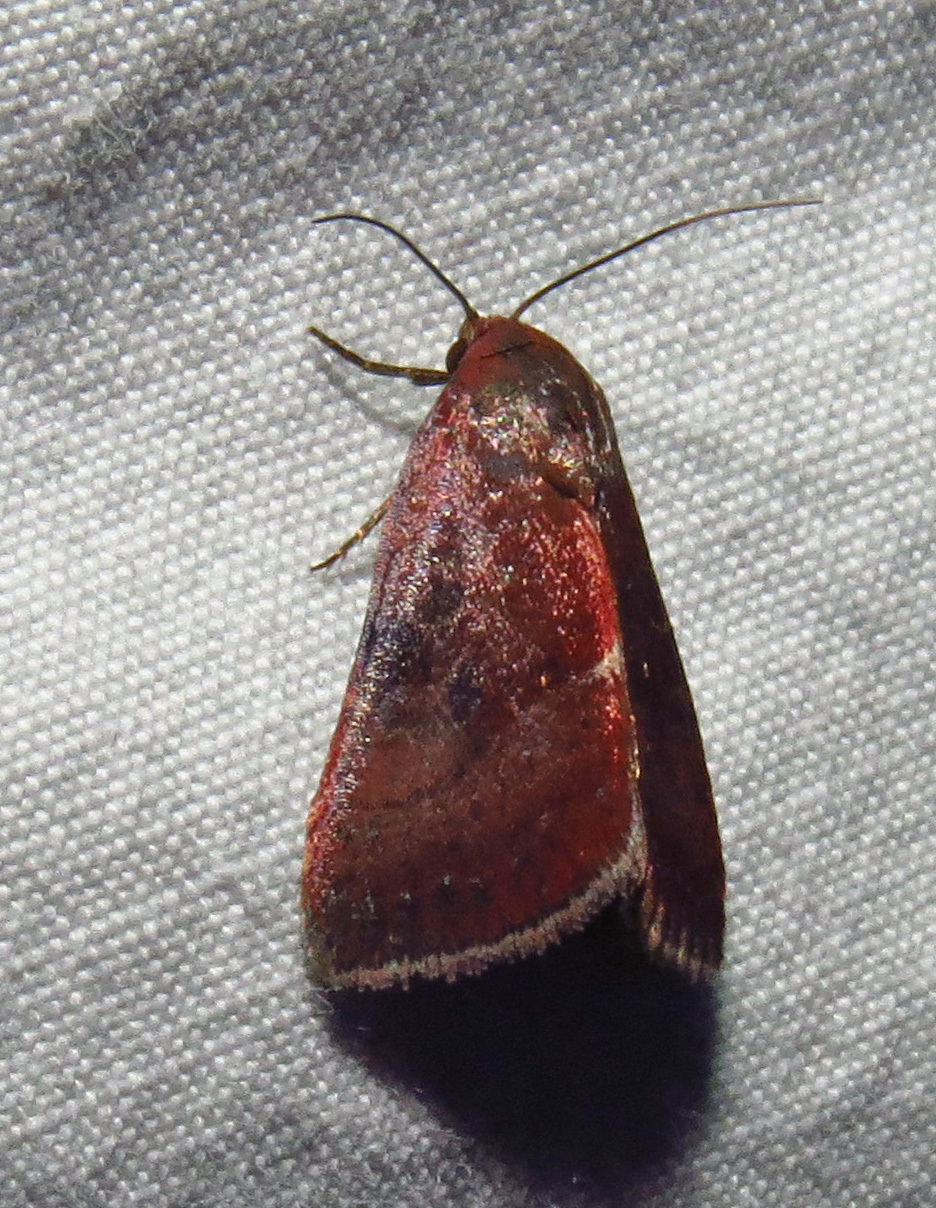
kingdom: Animalia
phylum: Arthropoda
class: Insecta
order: Lepidoptera
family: Noctuidae
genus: Galgula
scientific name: Galgula partita
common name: Wedgeling
